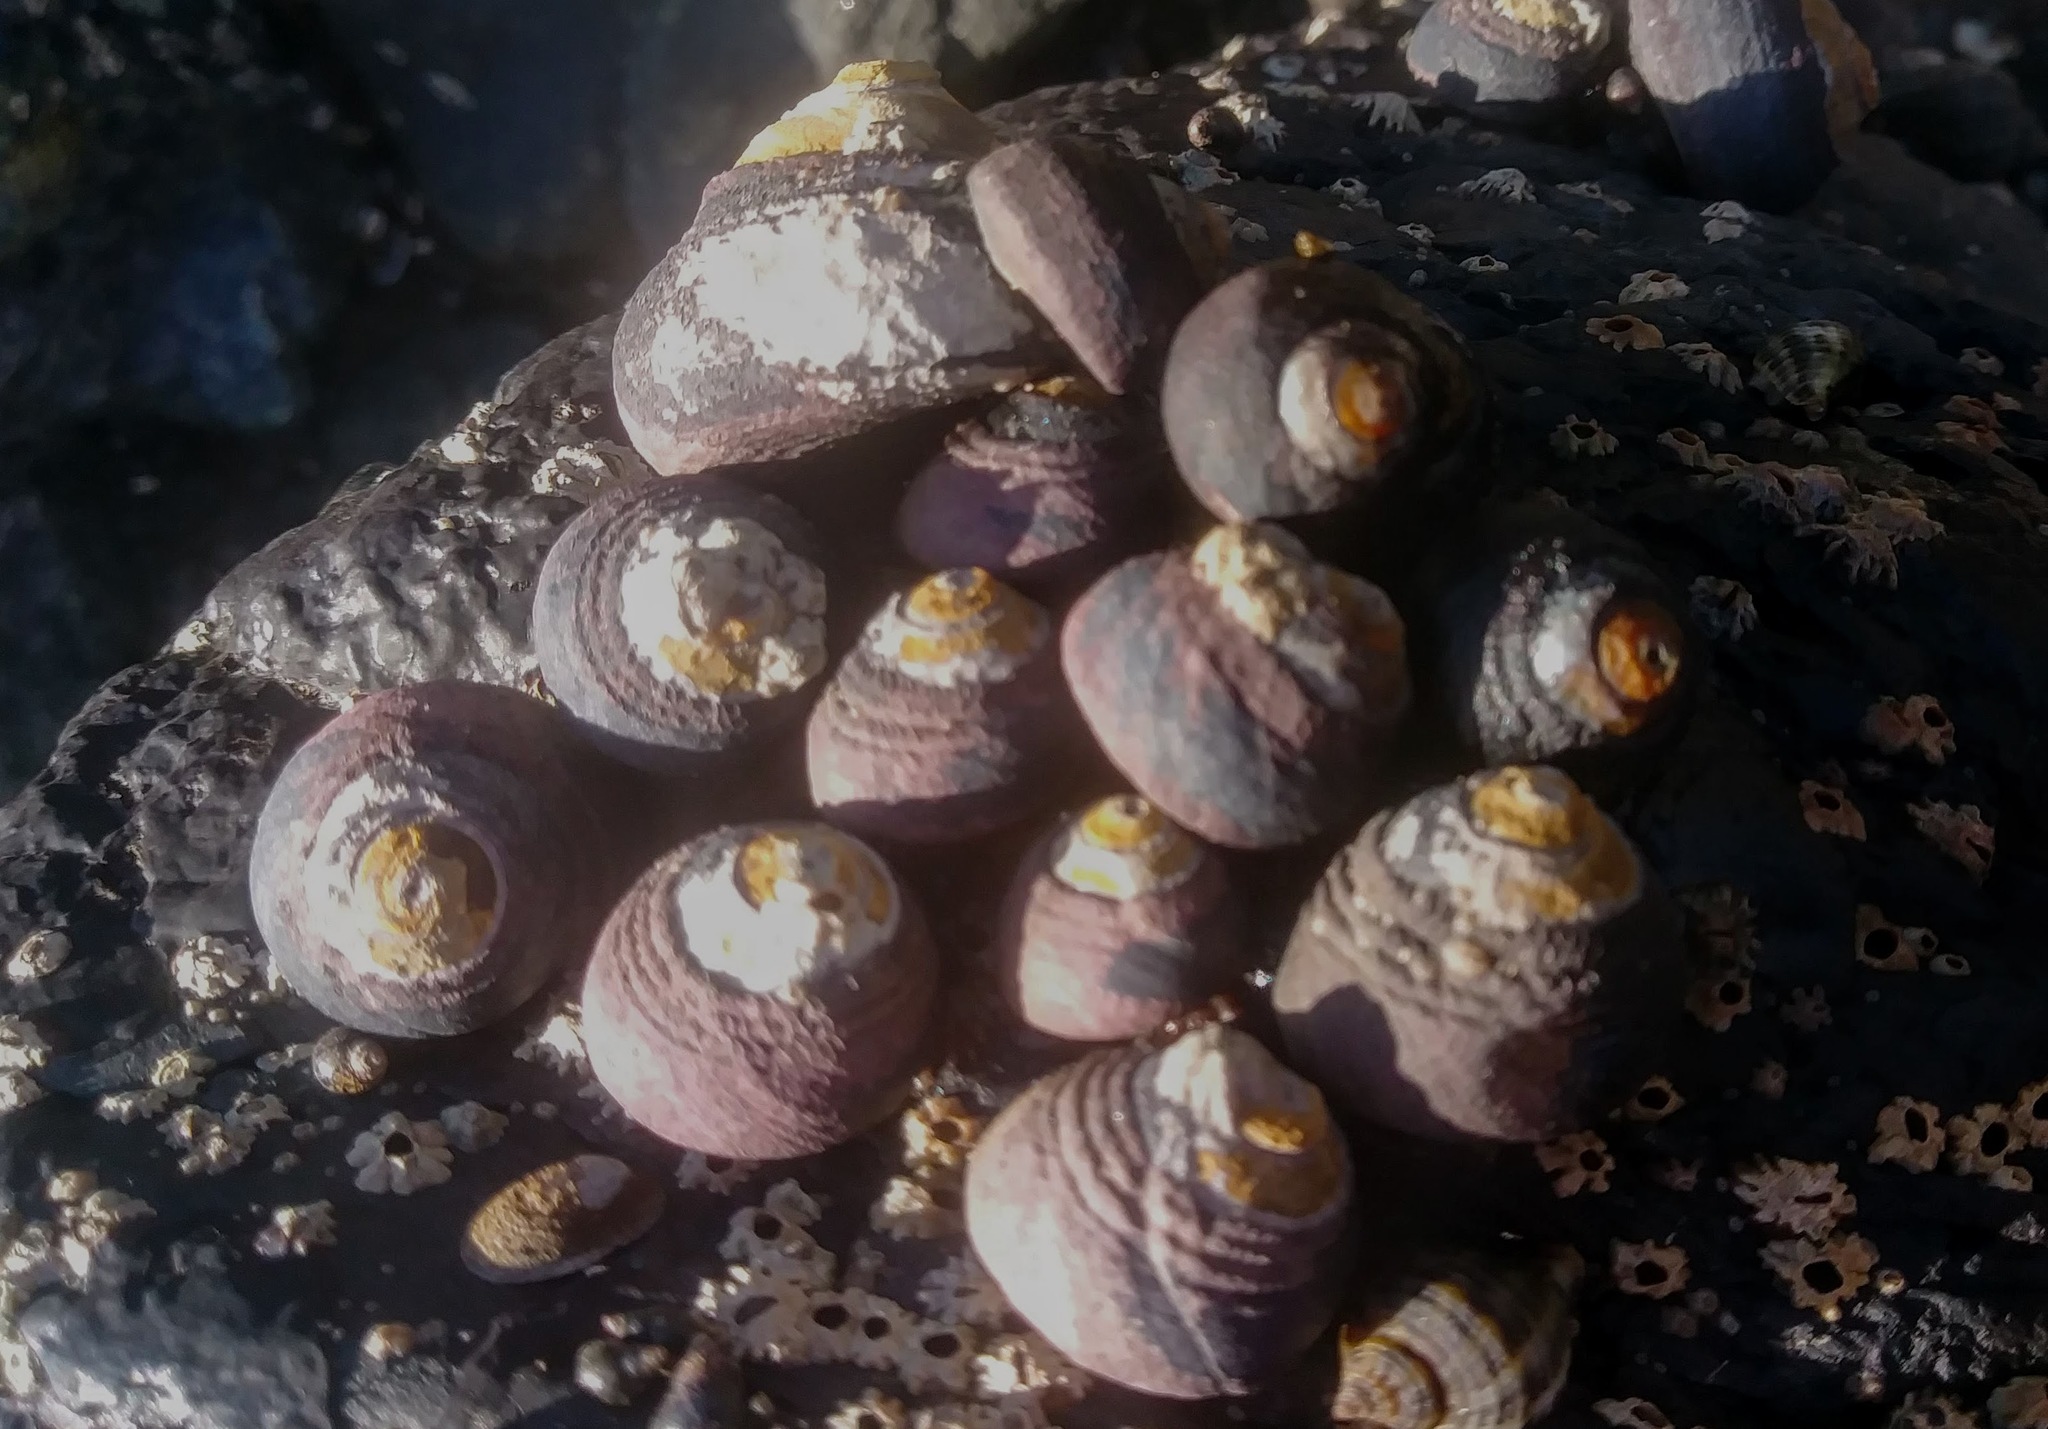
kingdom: Animalia
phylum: Mollusca
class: Gastropoda
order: Trochida
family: Tegulidae
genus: Tegula
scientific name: Tegula funebralis
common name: Black tegula
